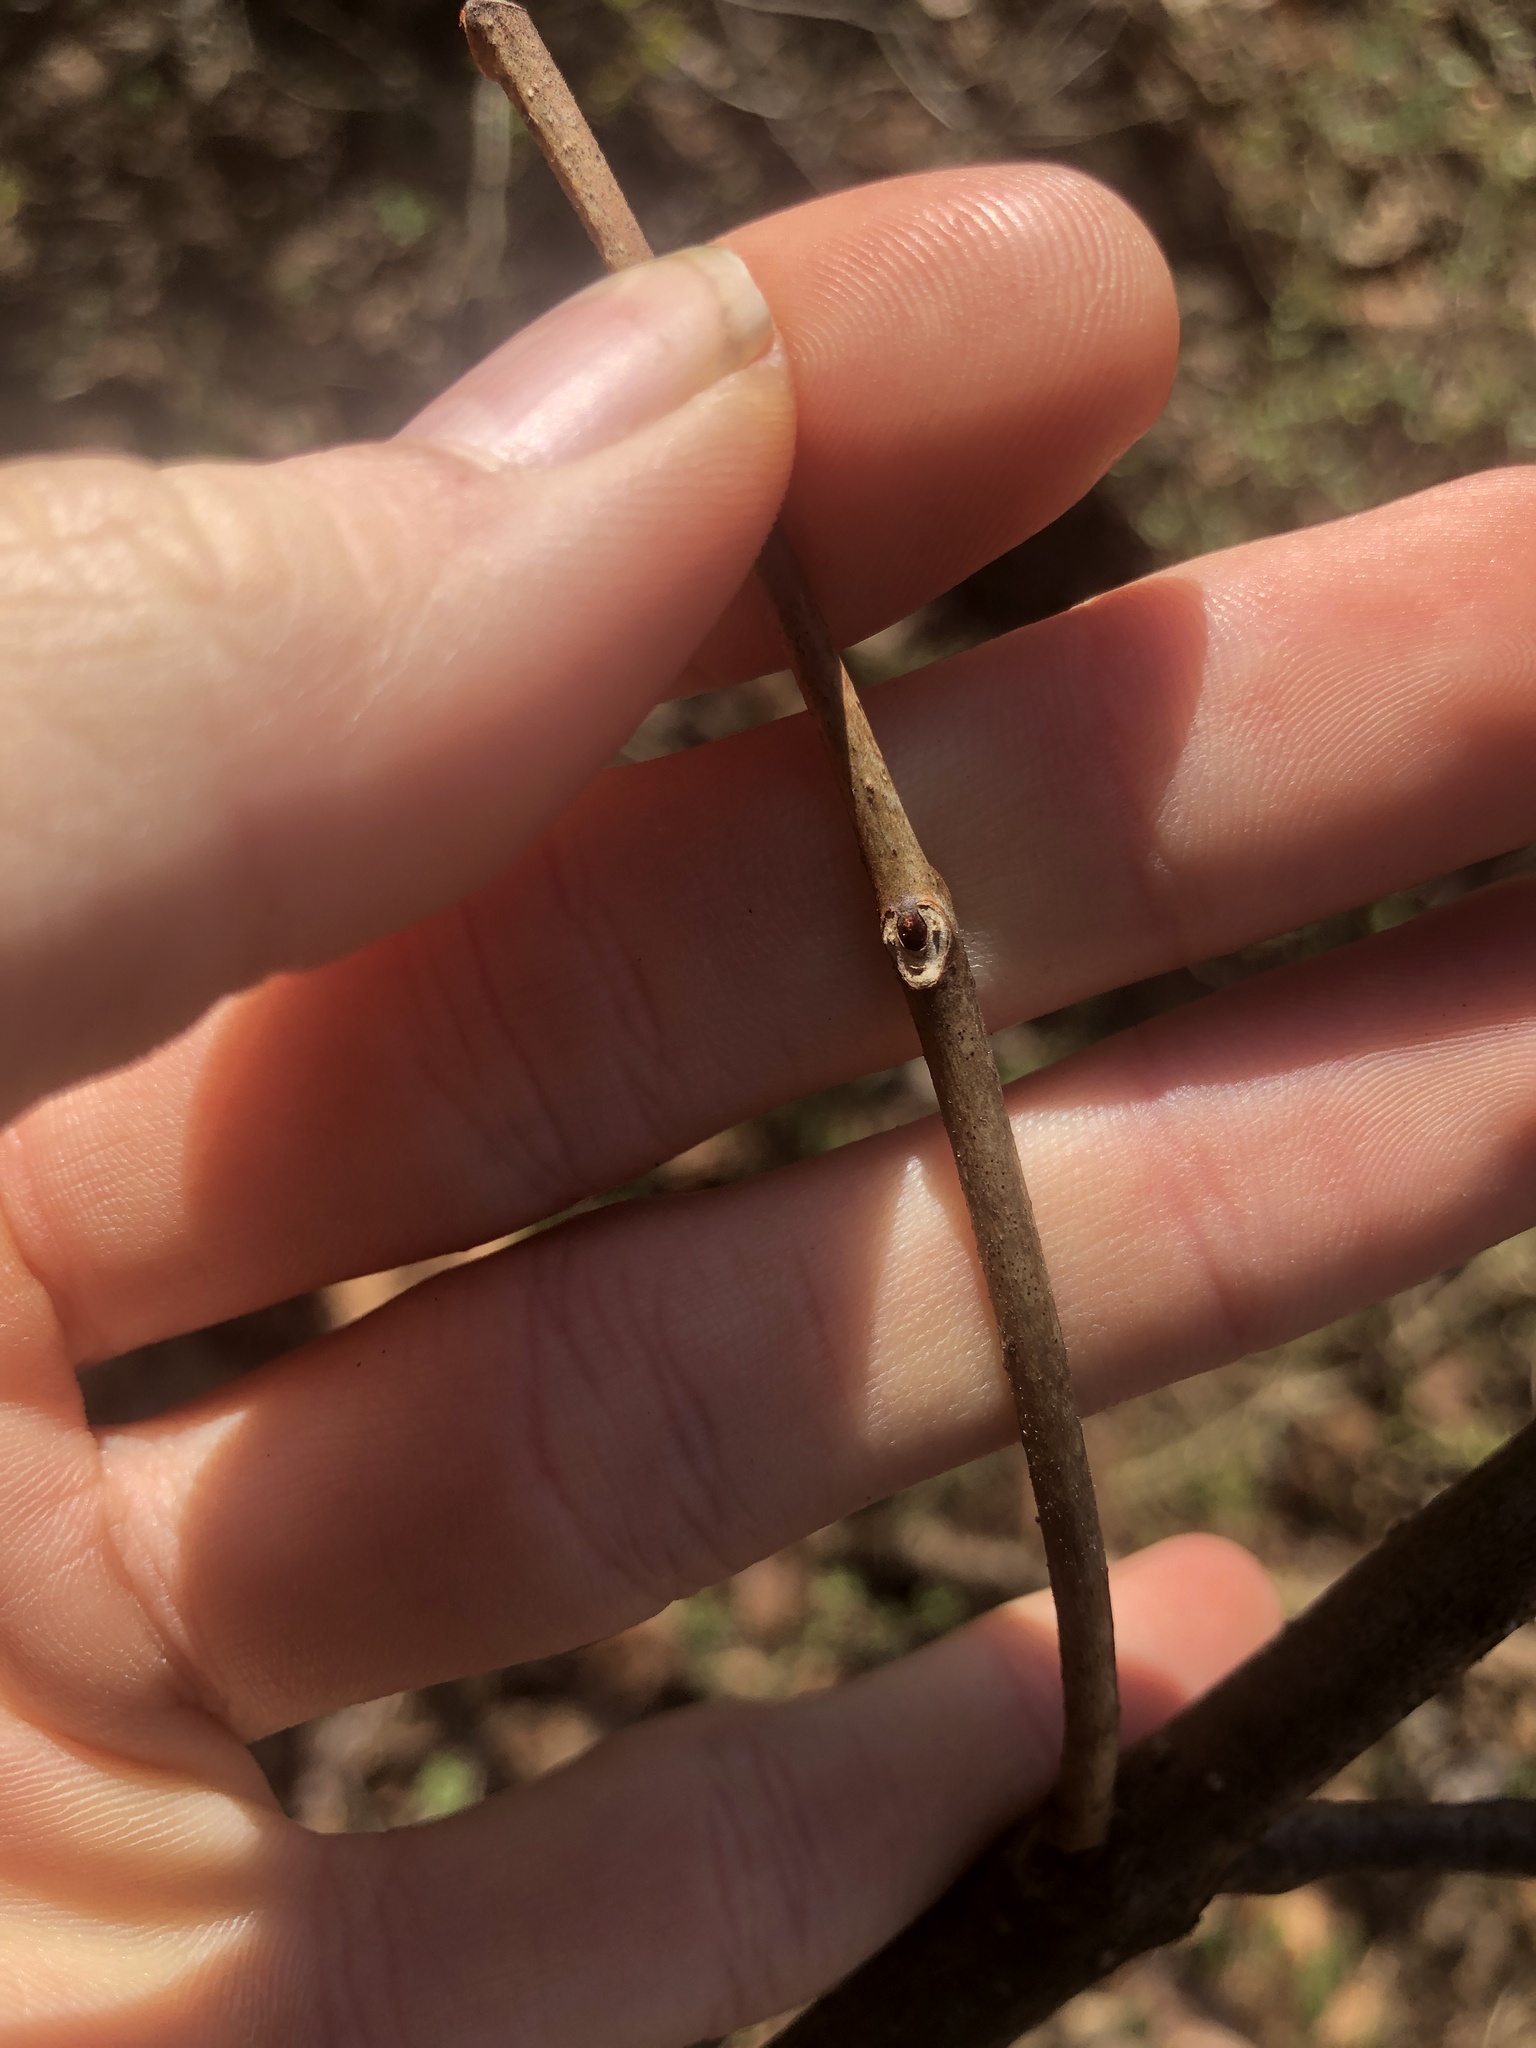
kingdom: Plantae
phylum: Tracheophyta
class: Magnoliopsida
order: Sapindales
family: Rutaceae
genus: Phellodendron
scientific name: Phellodendron amurense
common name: Amur corktree
